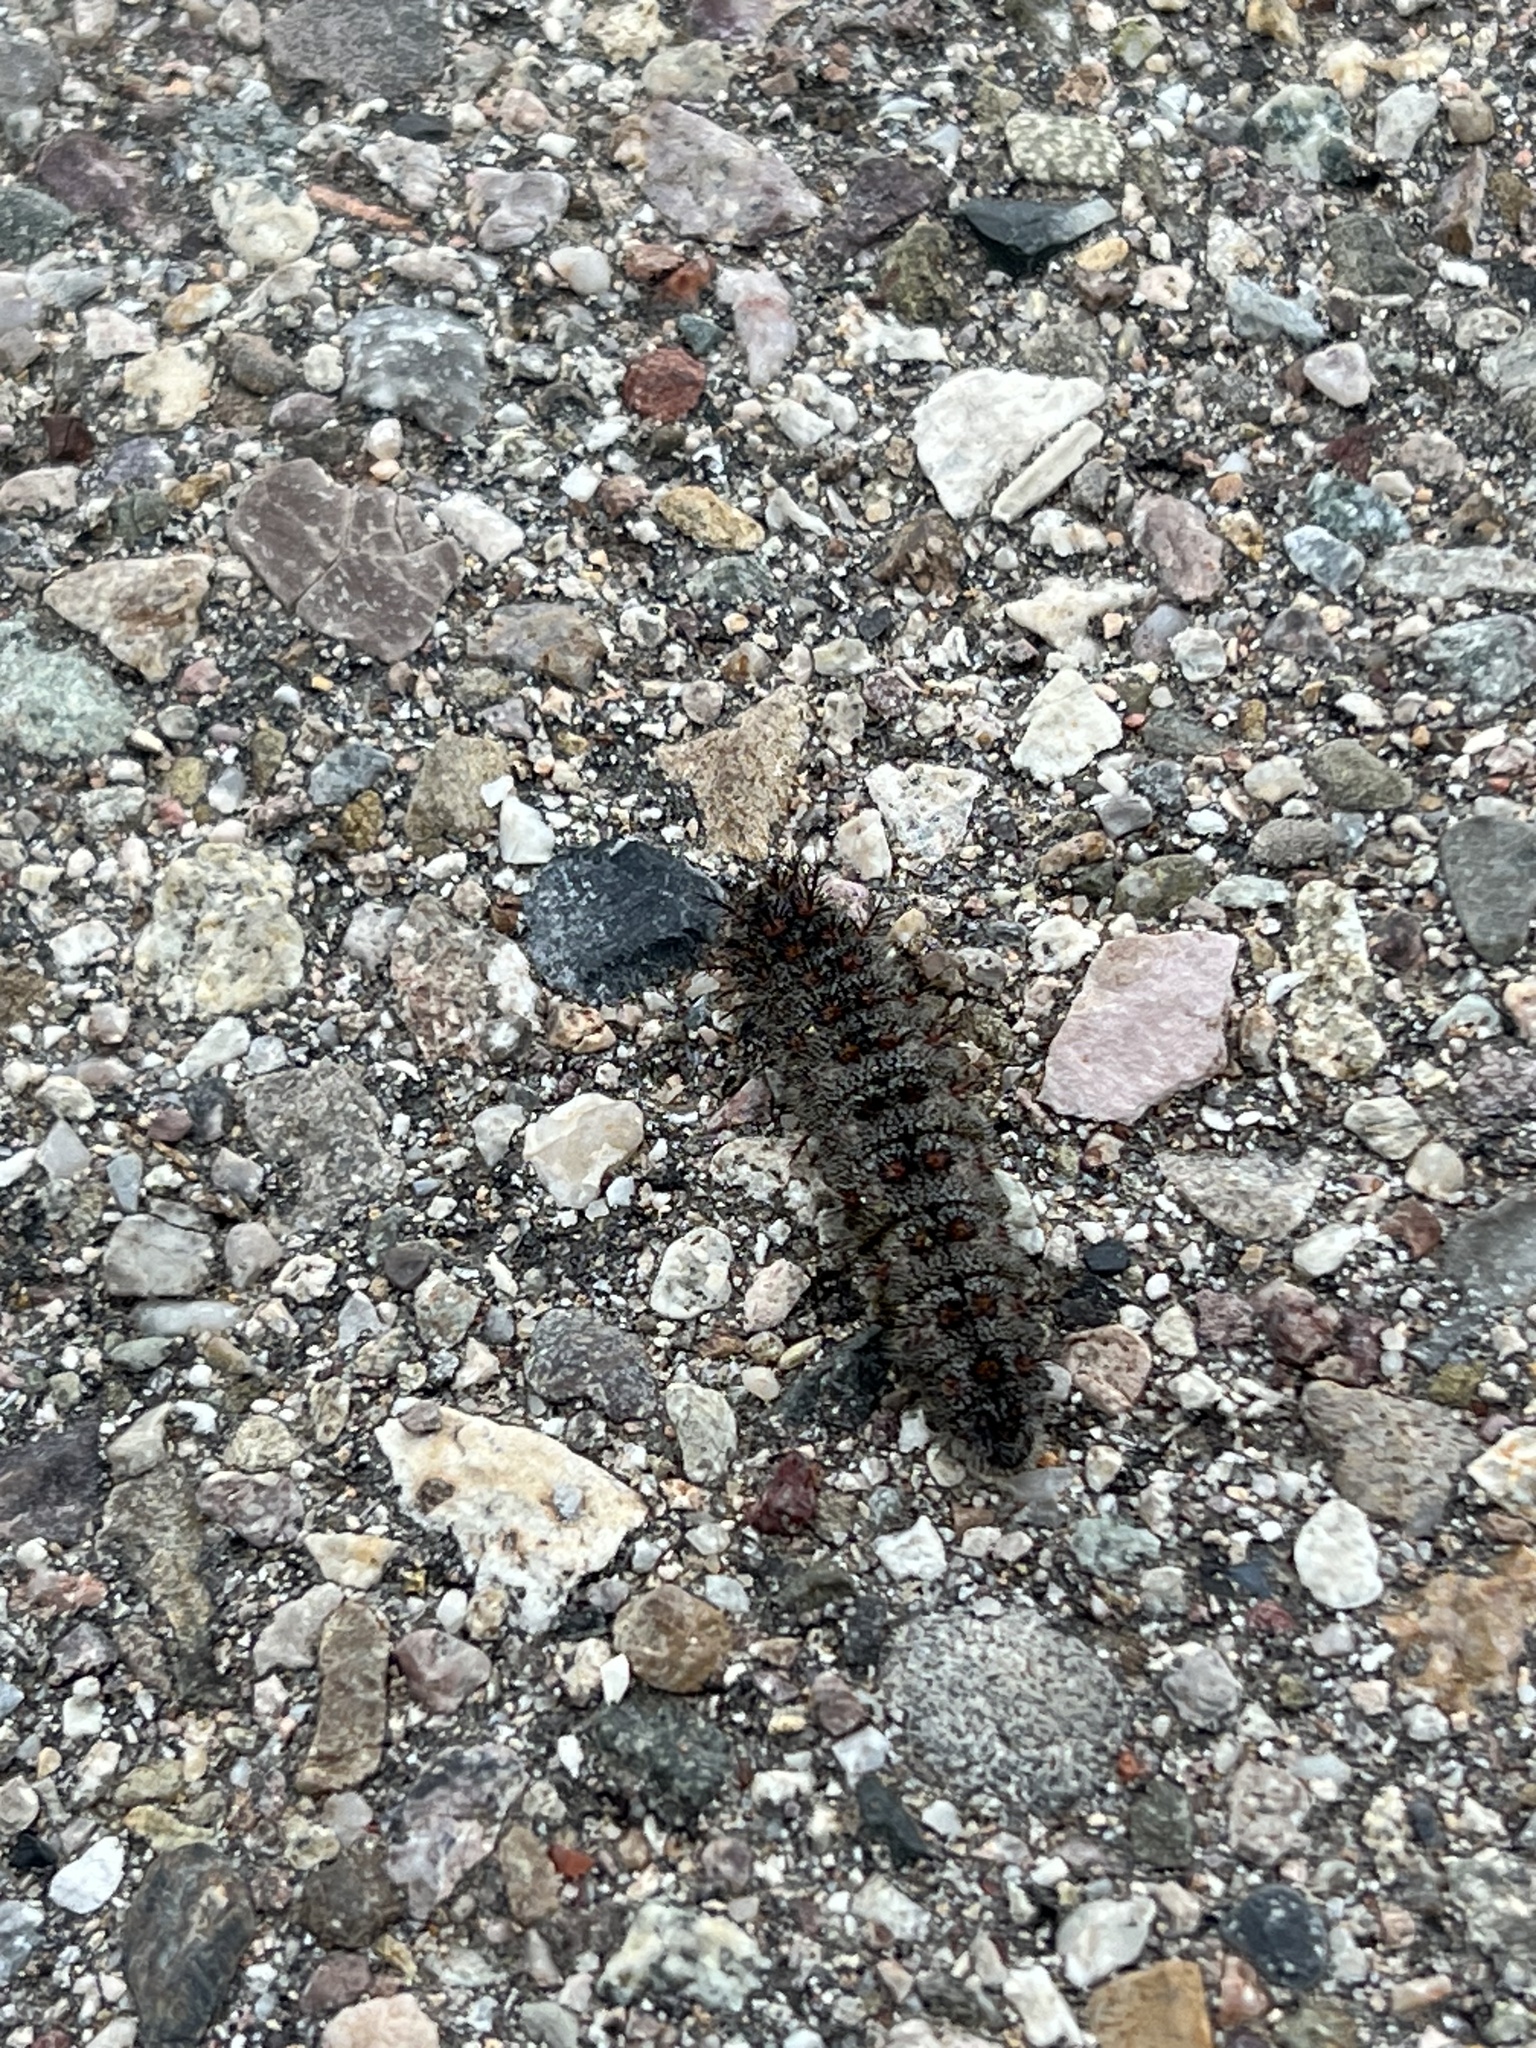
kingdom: Animalia
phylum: Arthropoda
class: Insecta
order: Lepidoptera
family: Saturniidae
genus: Hemileuca
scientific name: Hemileuca juno
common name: Juno buckmoth
